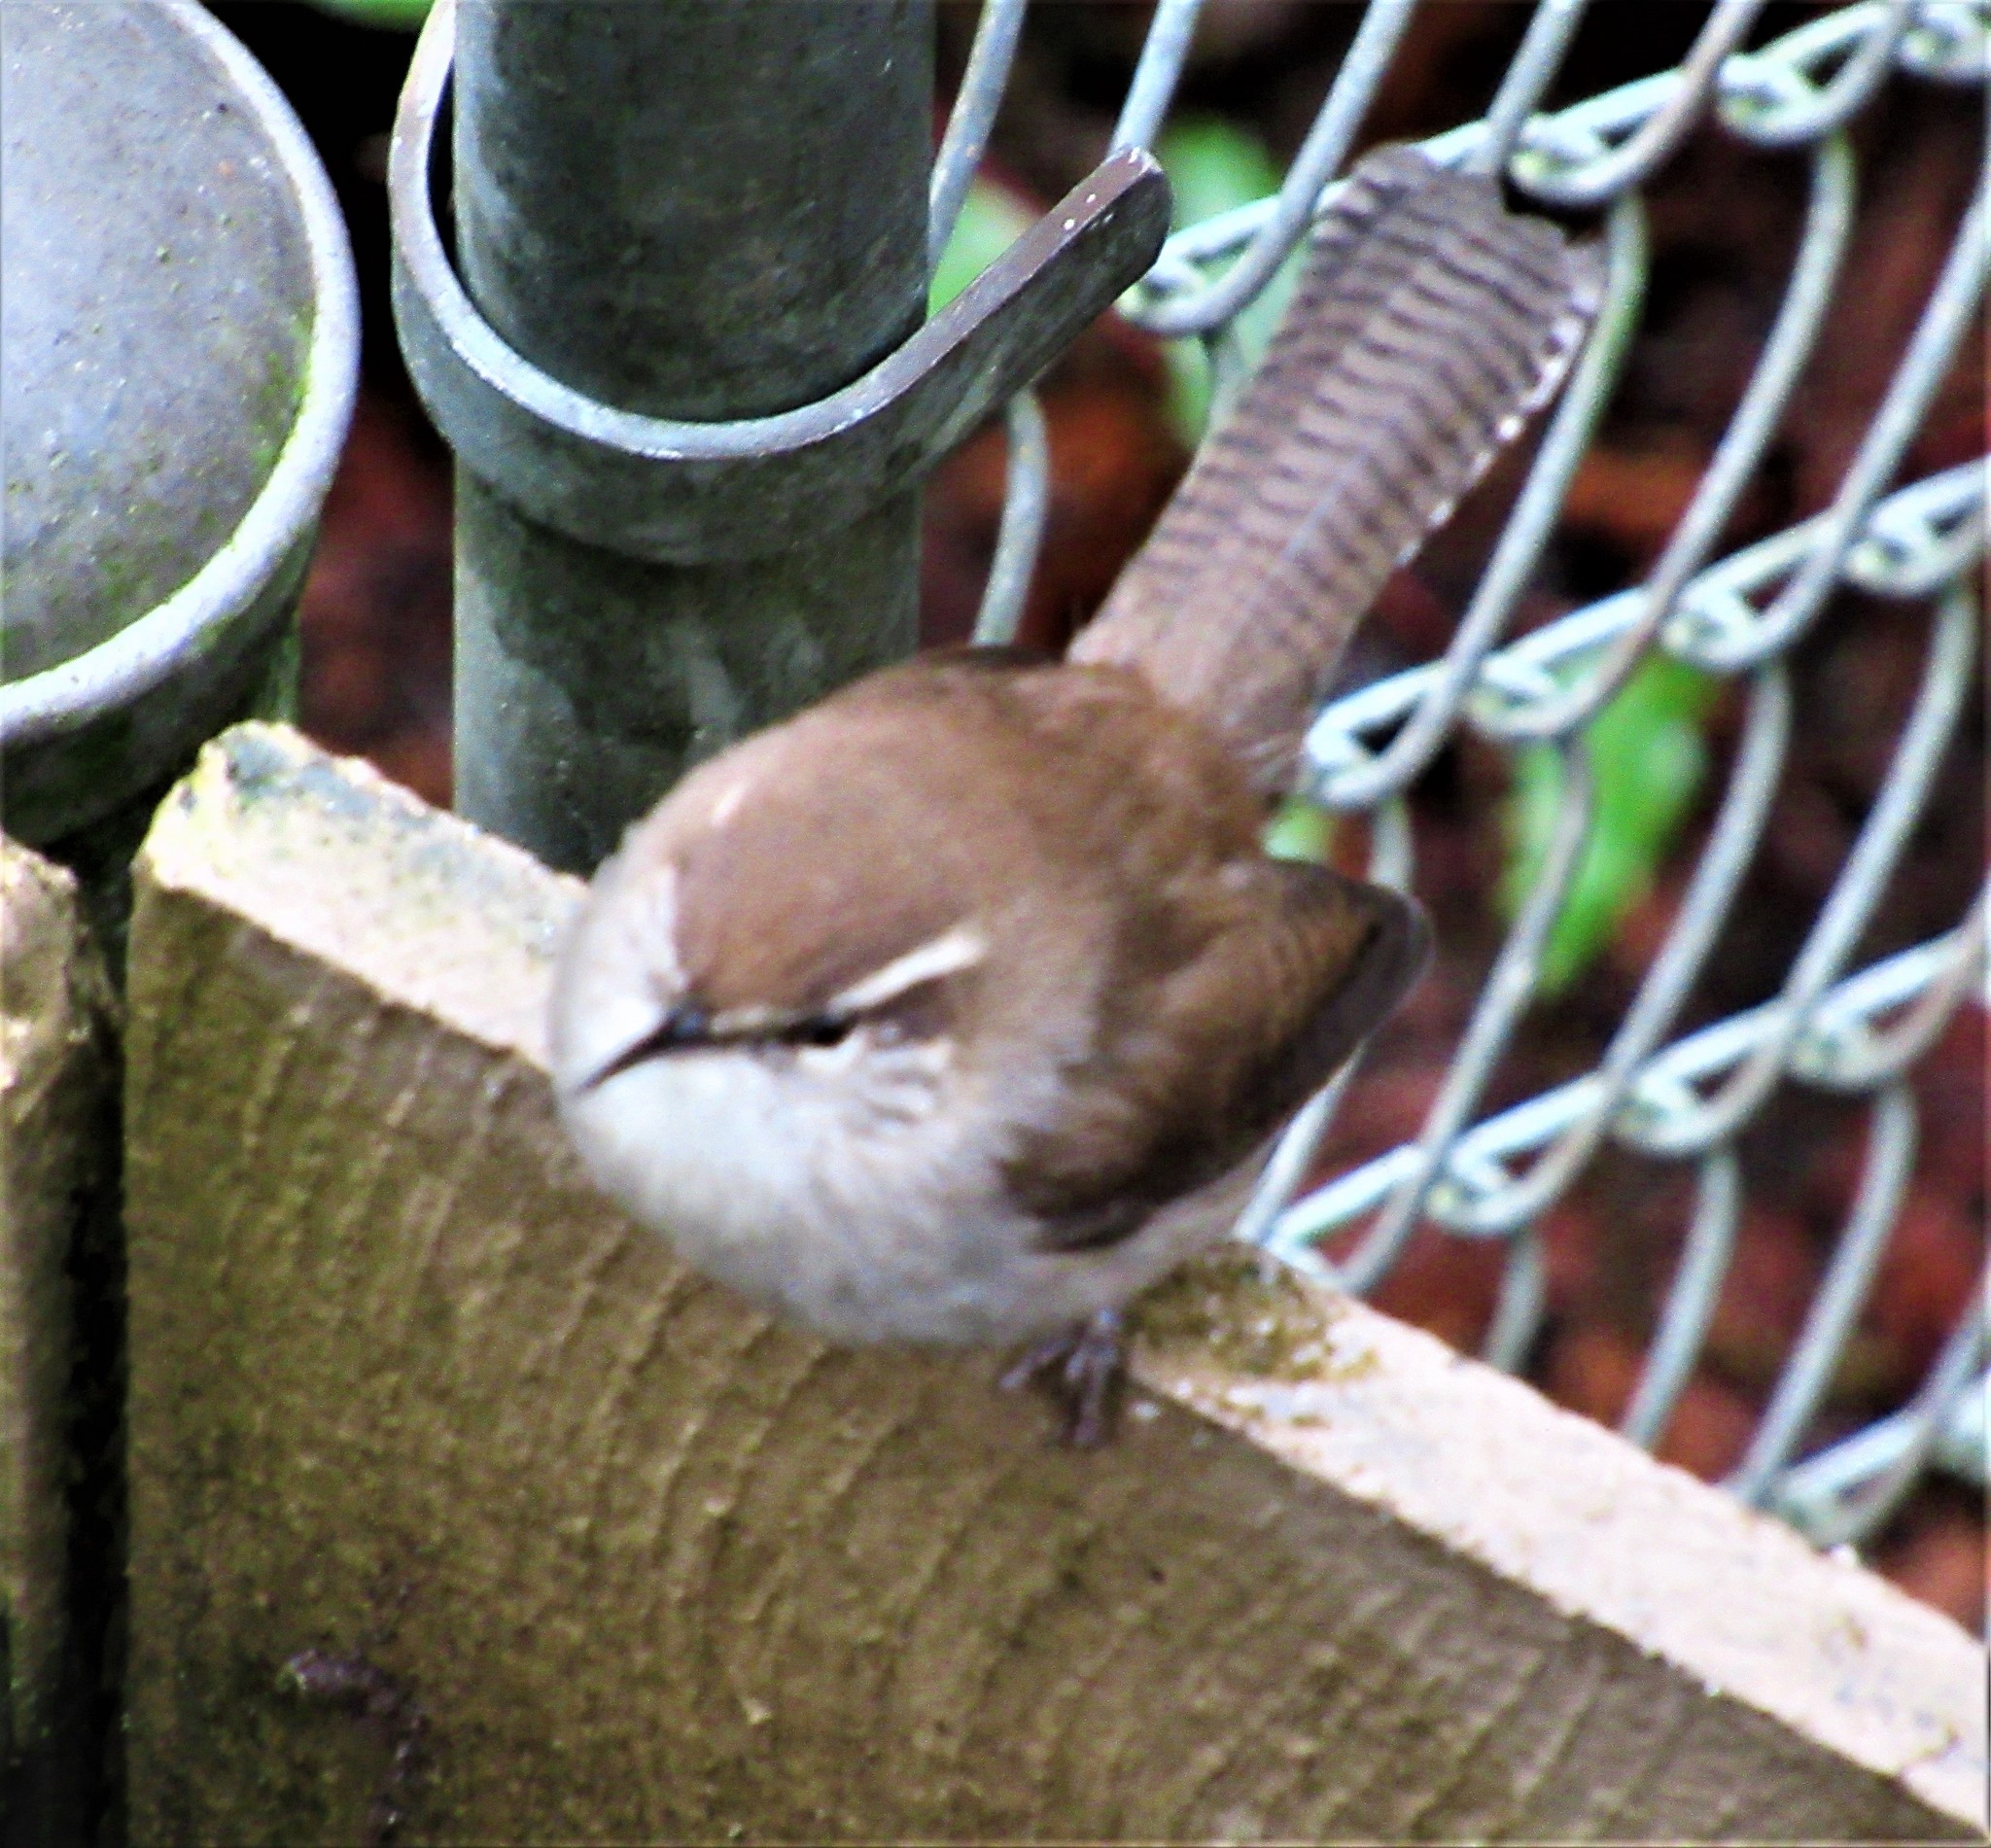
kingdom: Animalia
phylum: Chordata
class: Aves
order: Passeriformes
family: Troglodytidae
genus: Thryomanes
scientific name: Thryomanes bewickii
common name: Bewick's wren
